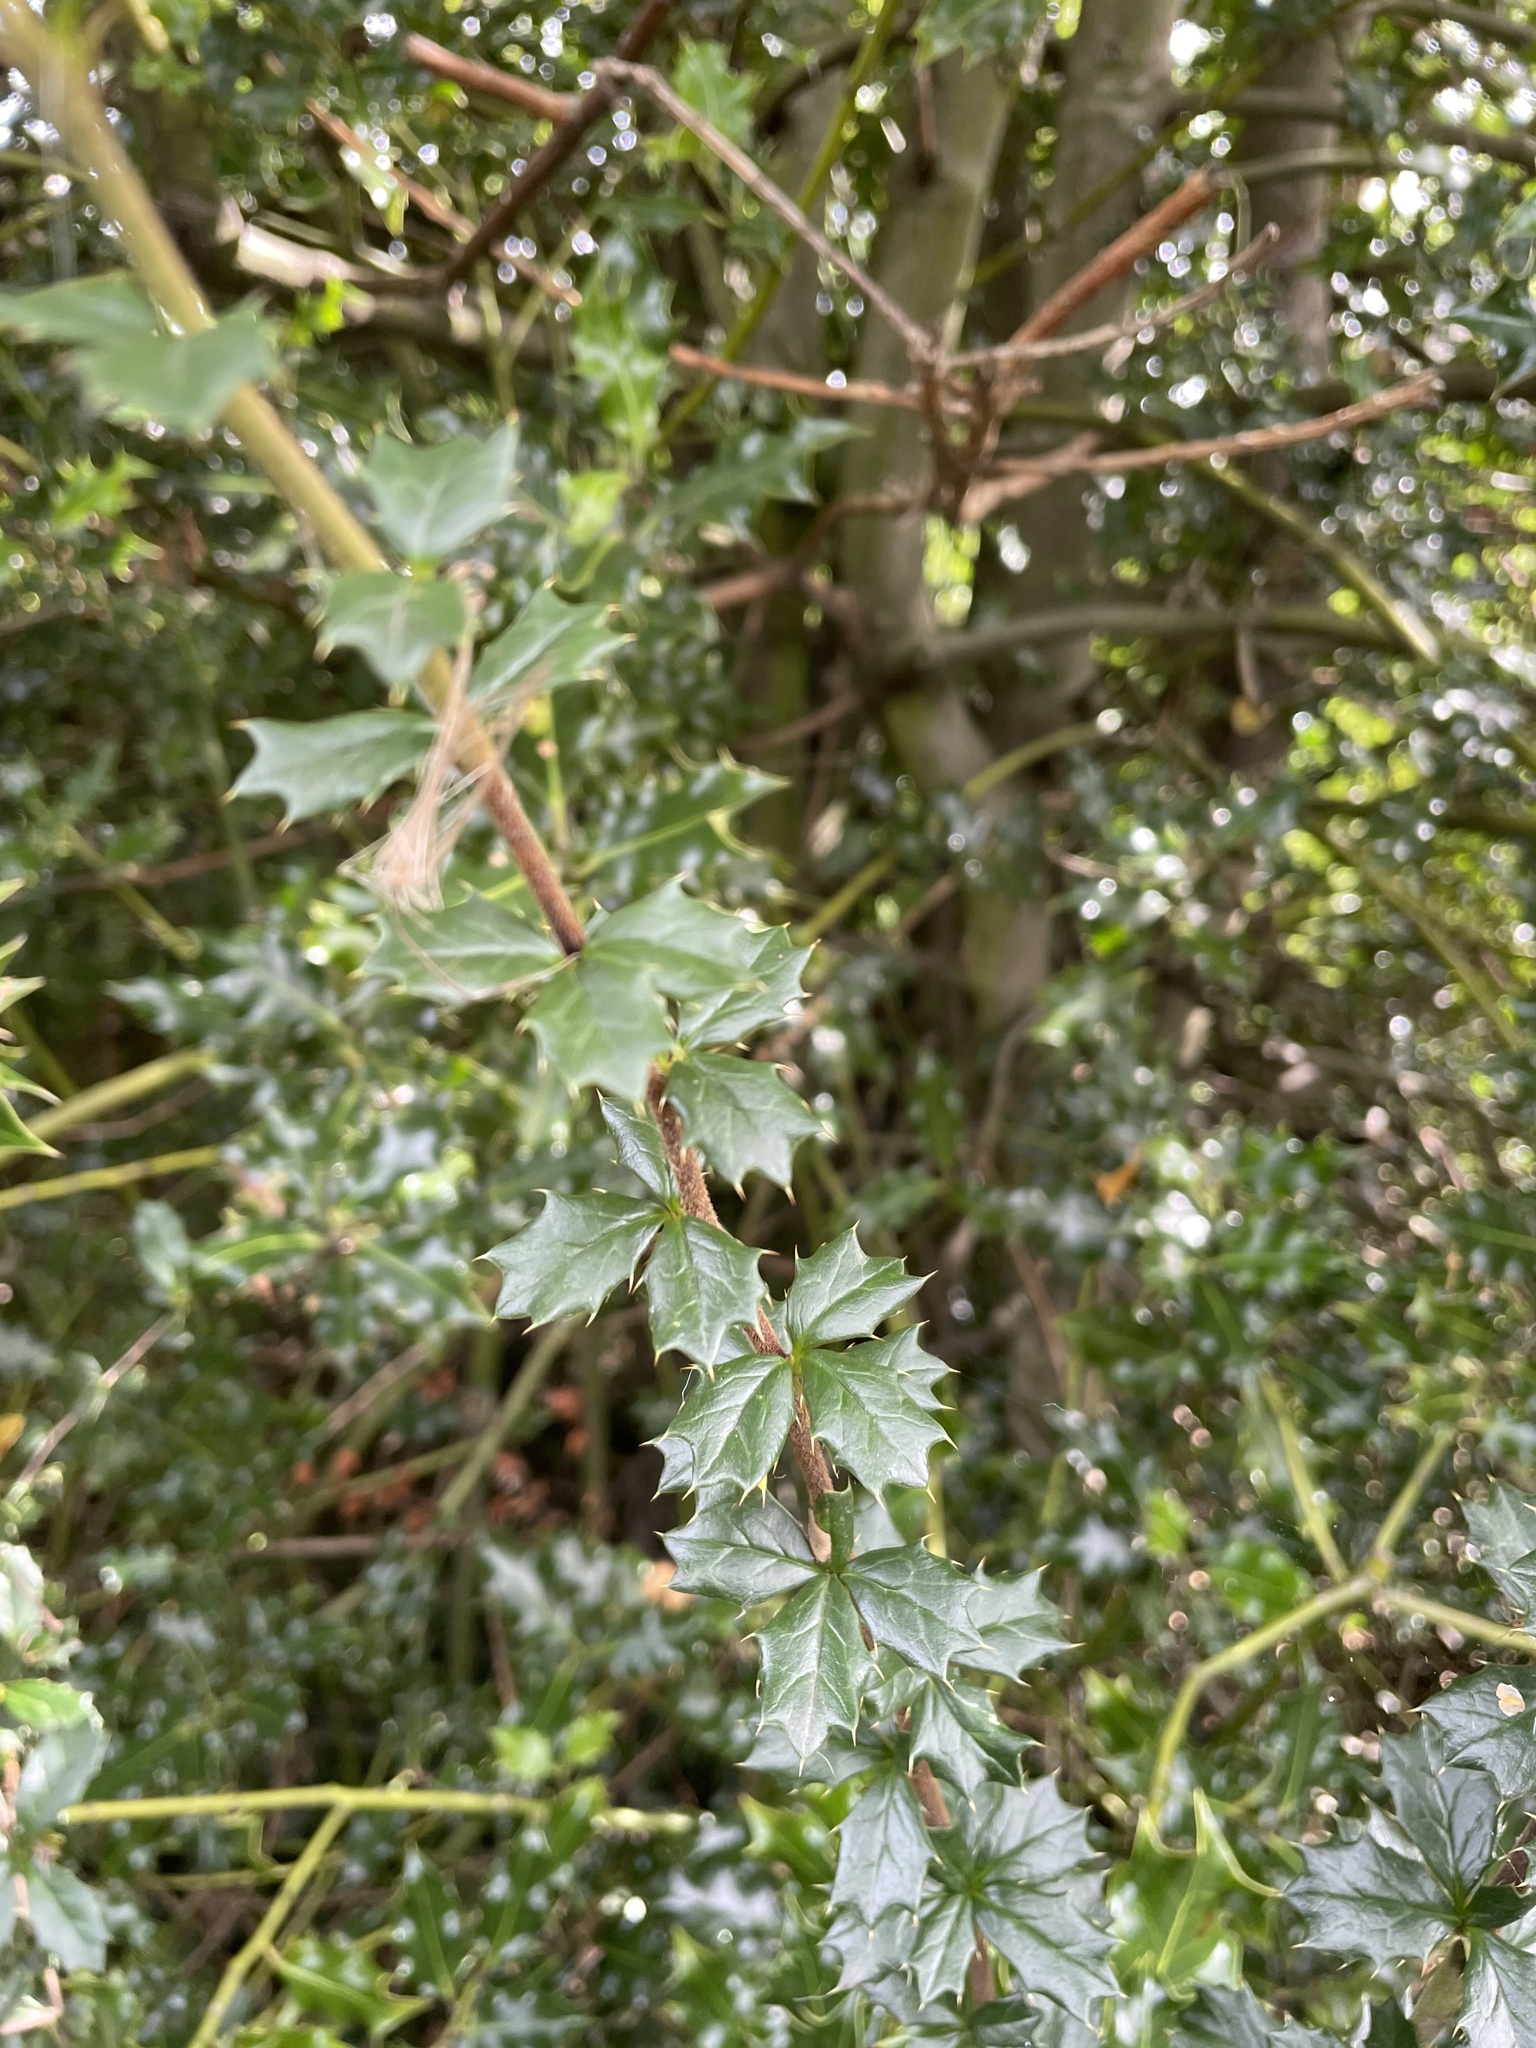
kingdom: Plantae
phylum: Tracheophyta
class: Magnoliopsida
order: Ranunculales
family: Berberidaceae
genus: Berberis
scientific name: Berberis darwinii
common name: Darwin's barberry
